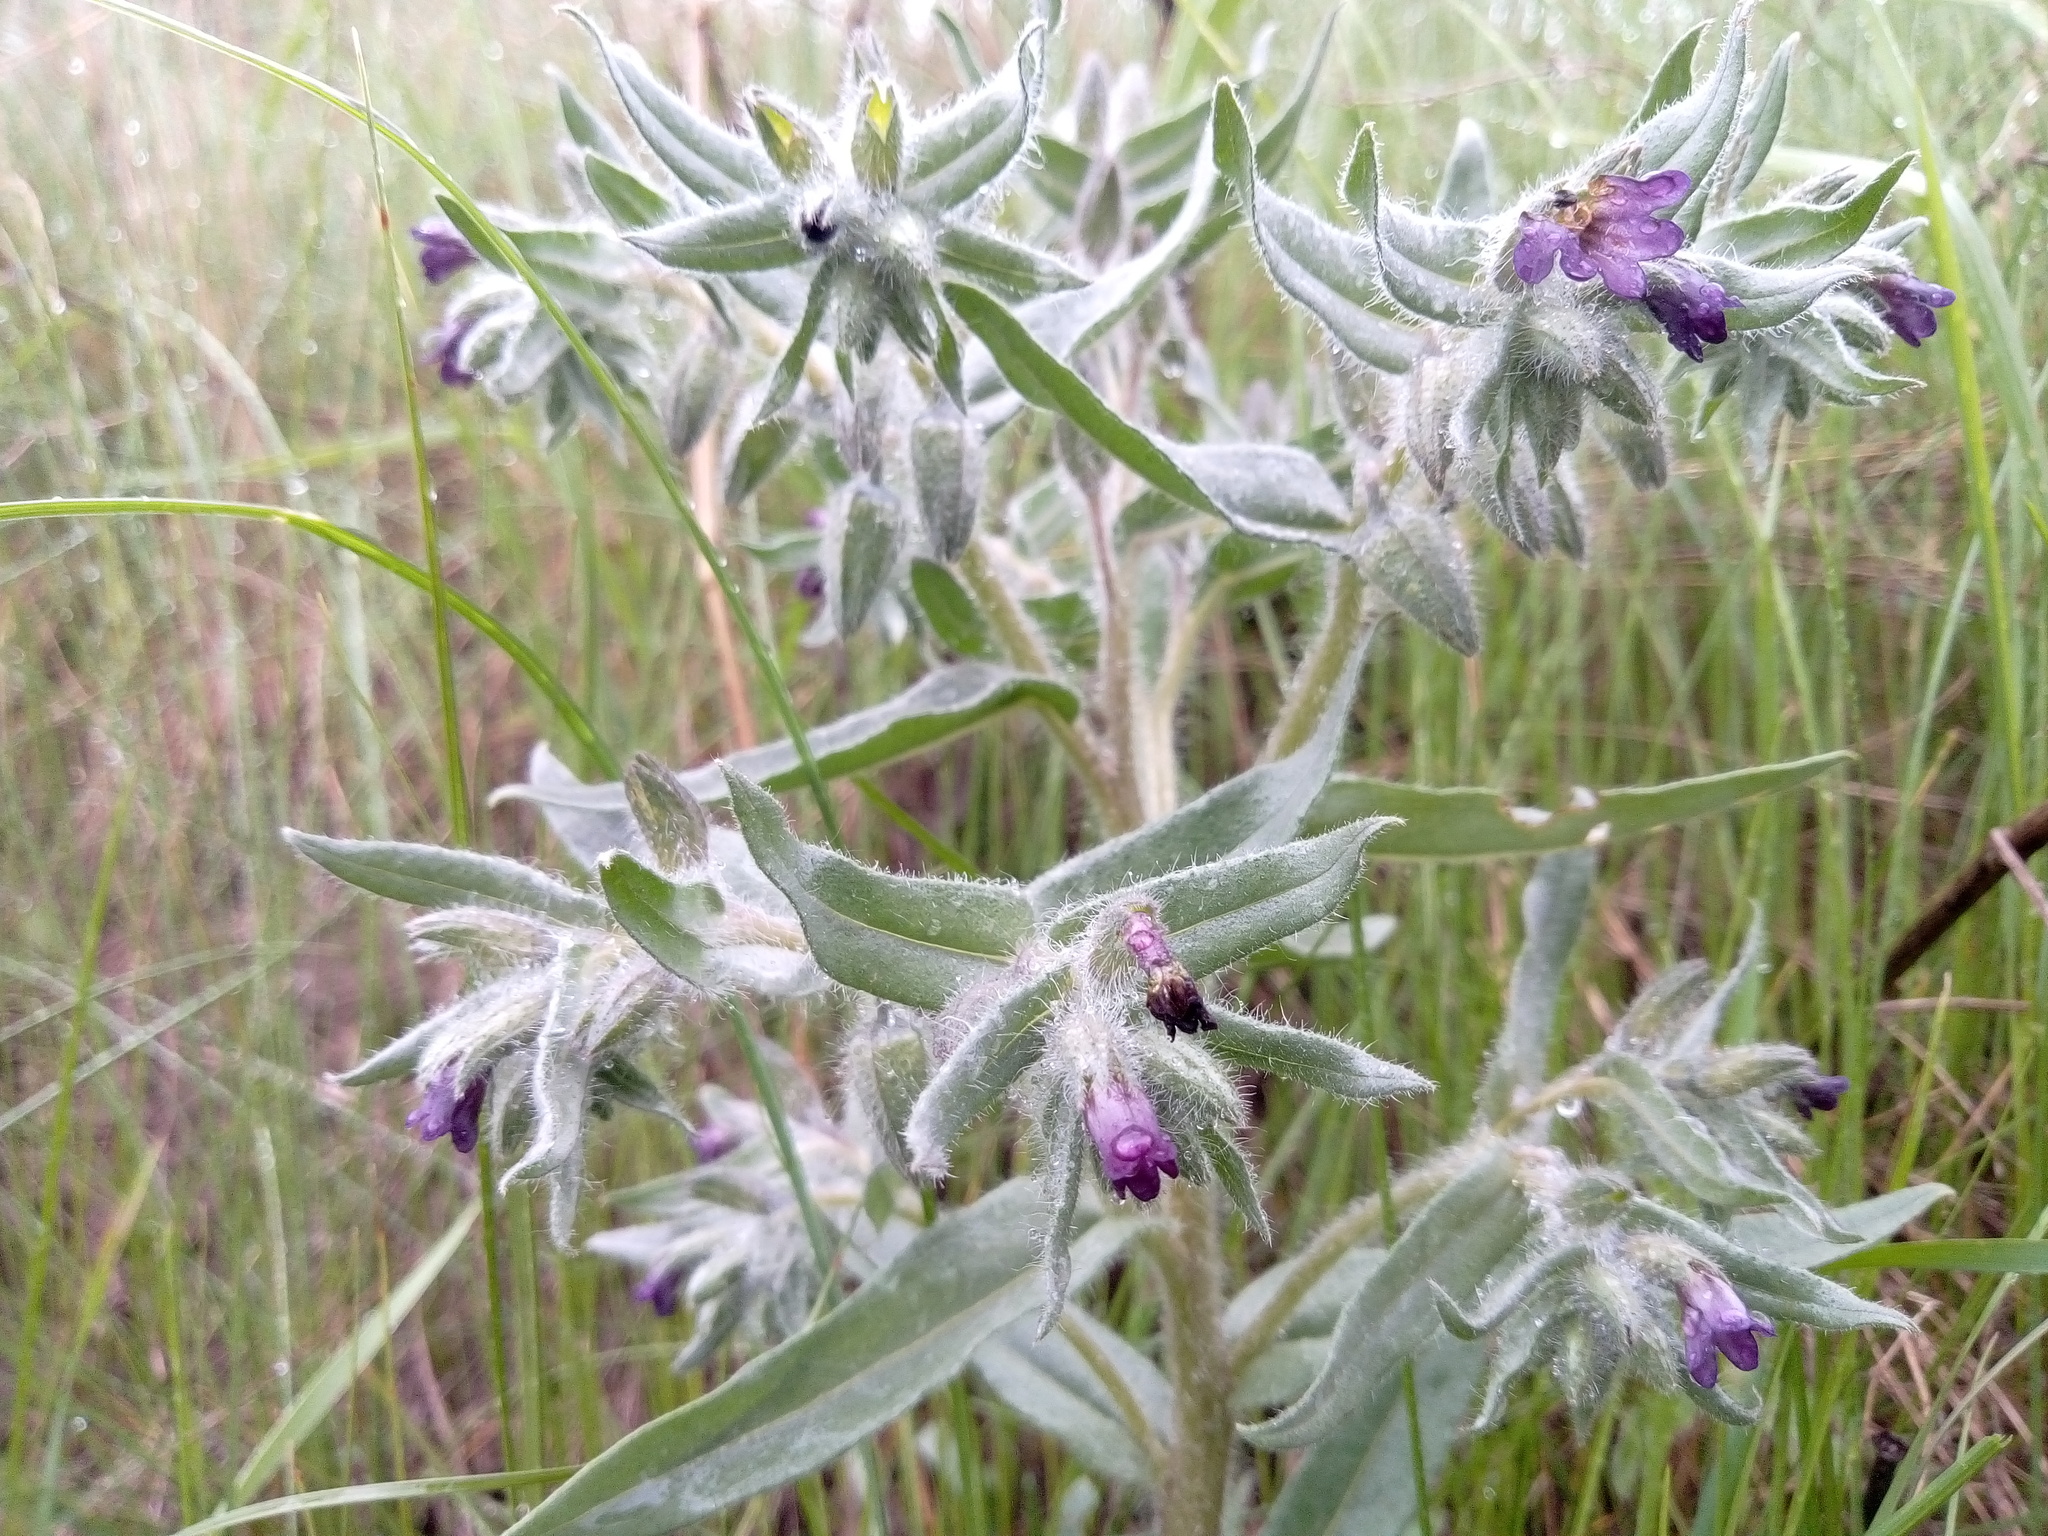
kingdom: Plantae
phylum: Tracheophyta
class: Magnoliopsida
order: Boraginales
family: Boraginaceae
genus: Nonea
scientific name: Nonea pulla
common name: Brown nonea
